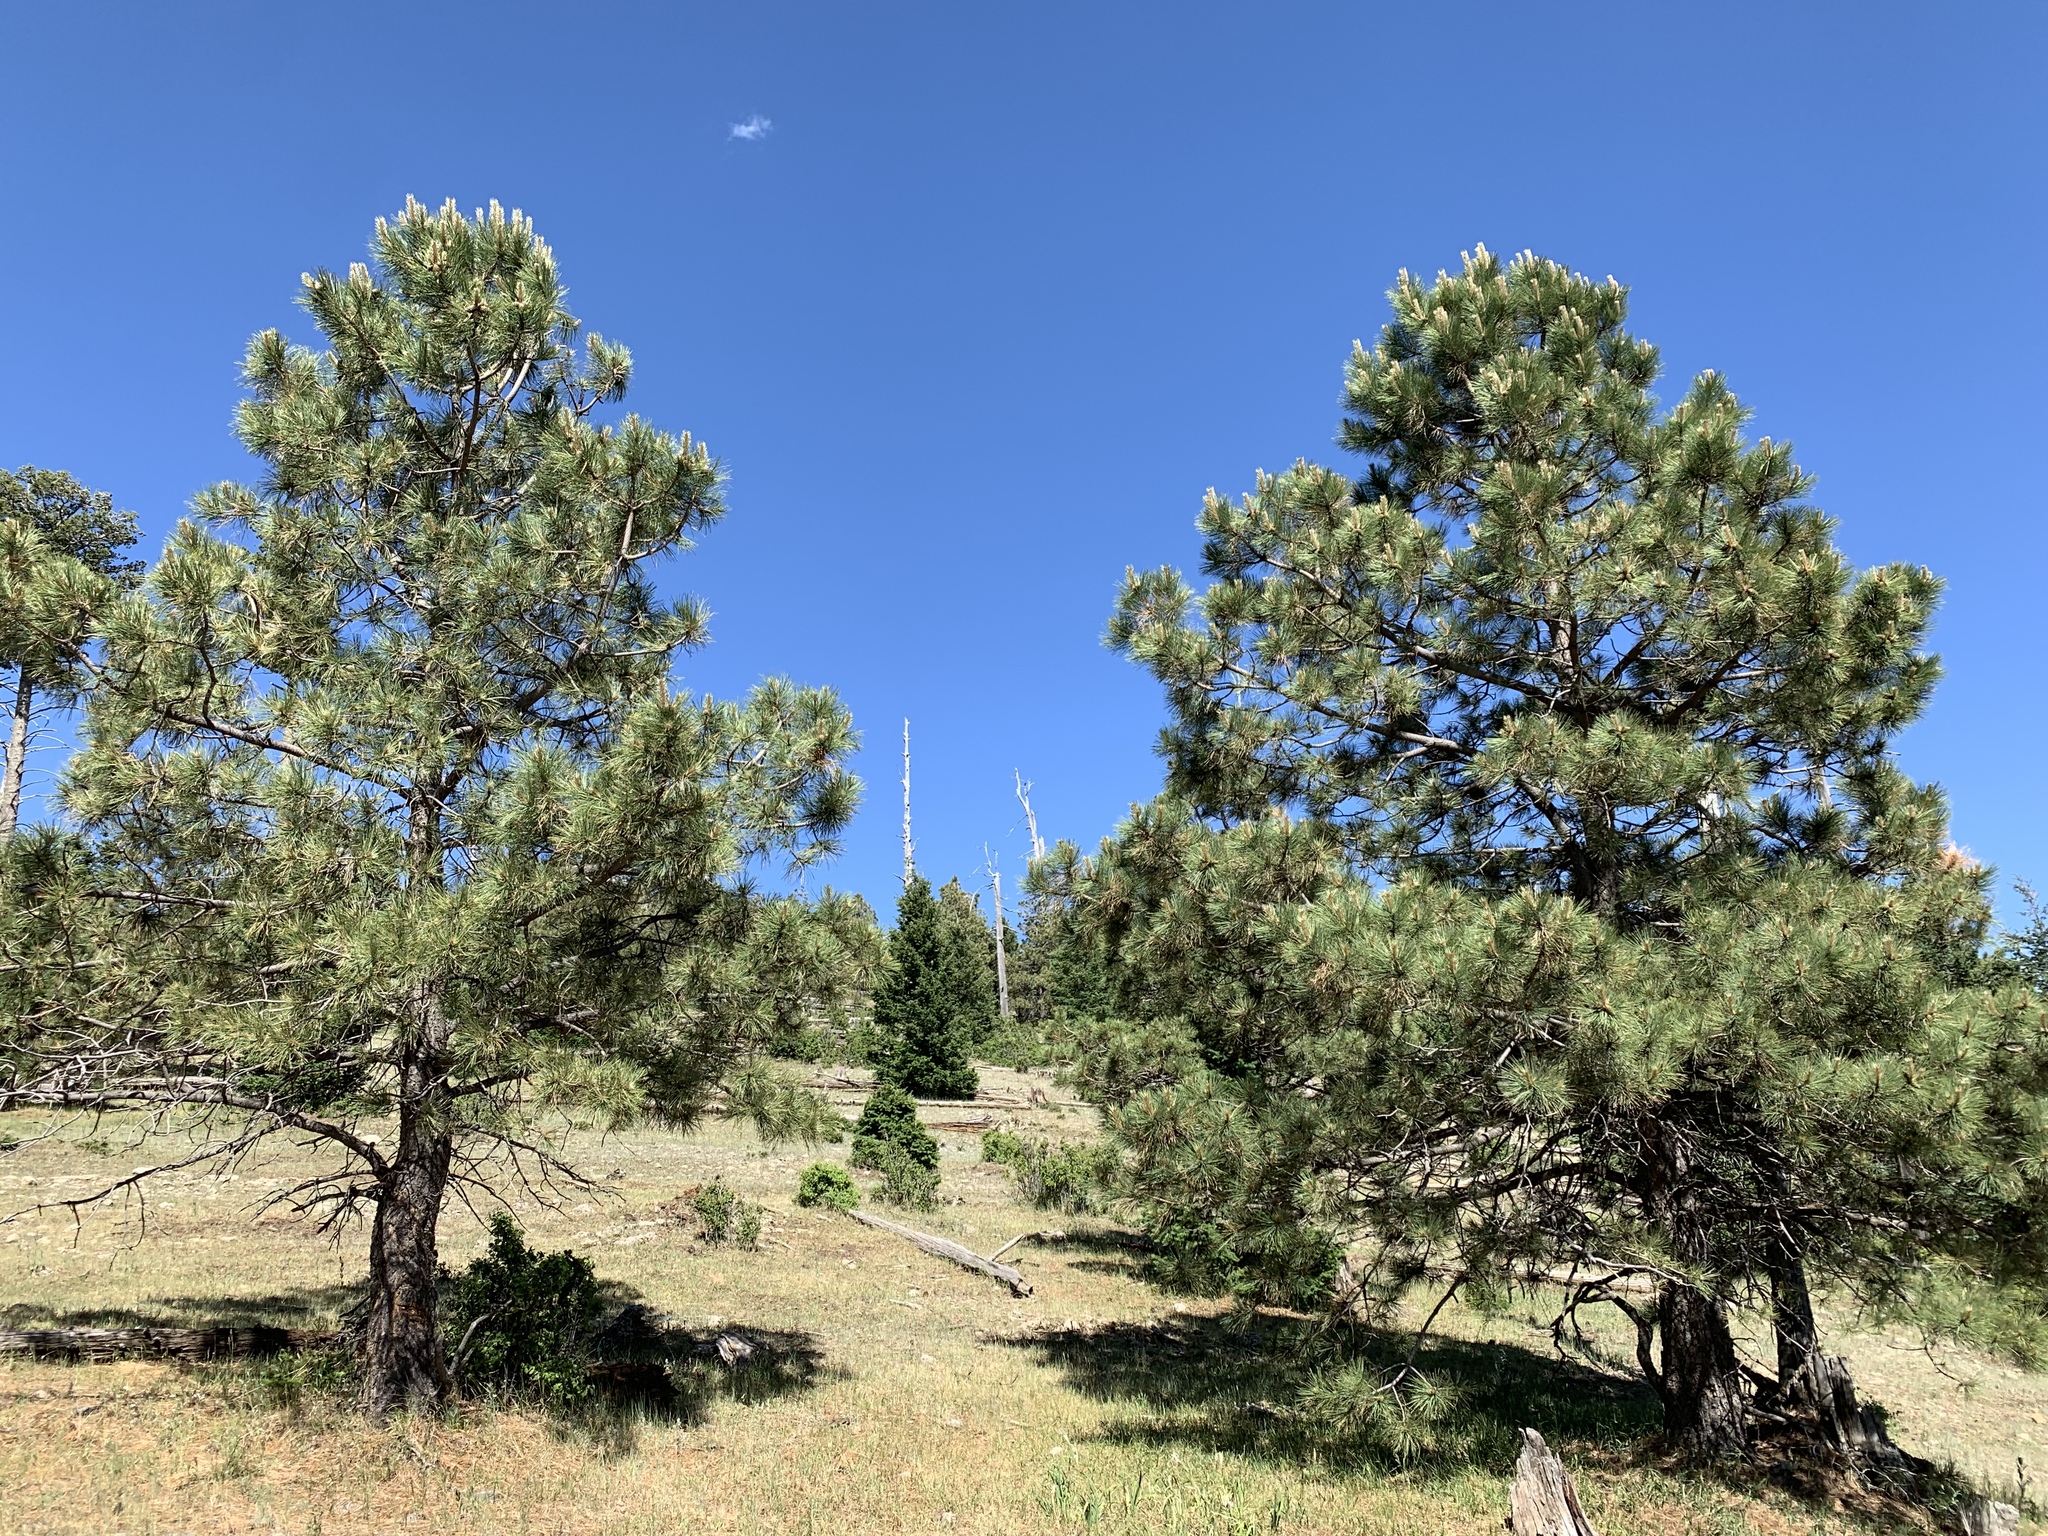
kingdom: Plantae
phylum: Tracheophyta
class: Pinopsida
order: Pinales
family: Pinaceae
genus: Pinus
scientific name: Pinus ponderosa
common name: Western yellow-pine
